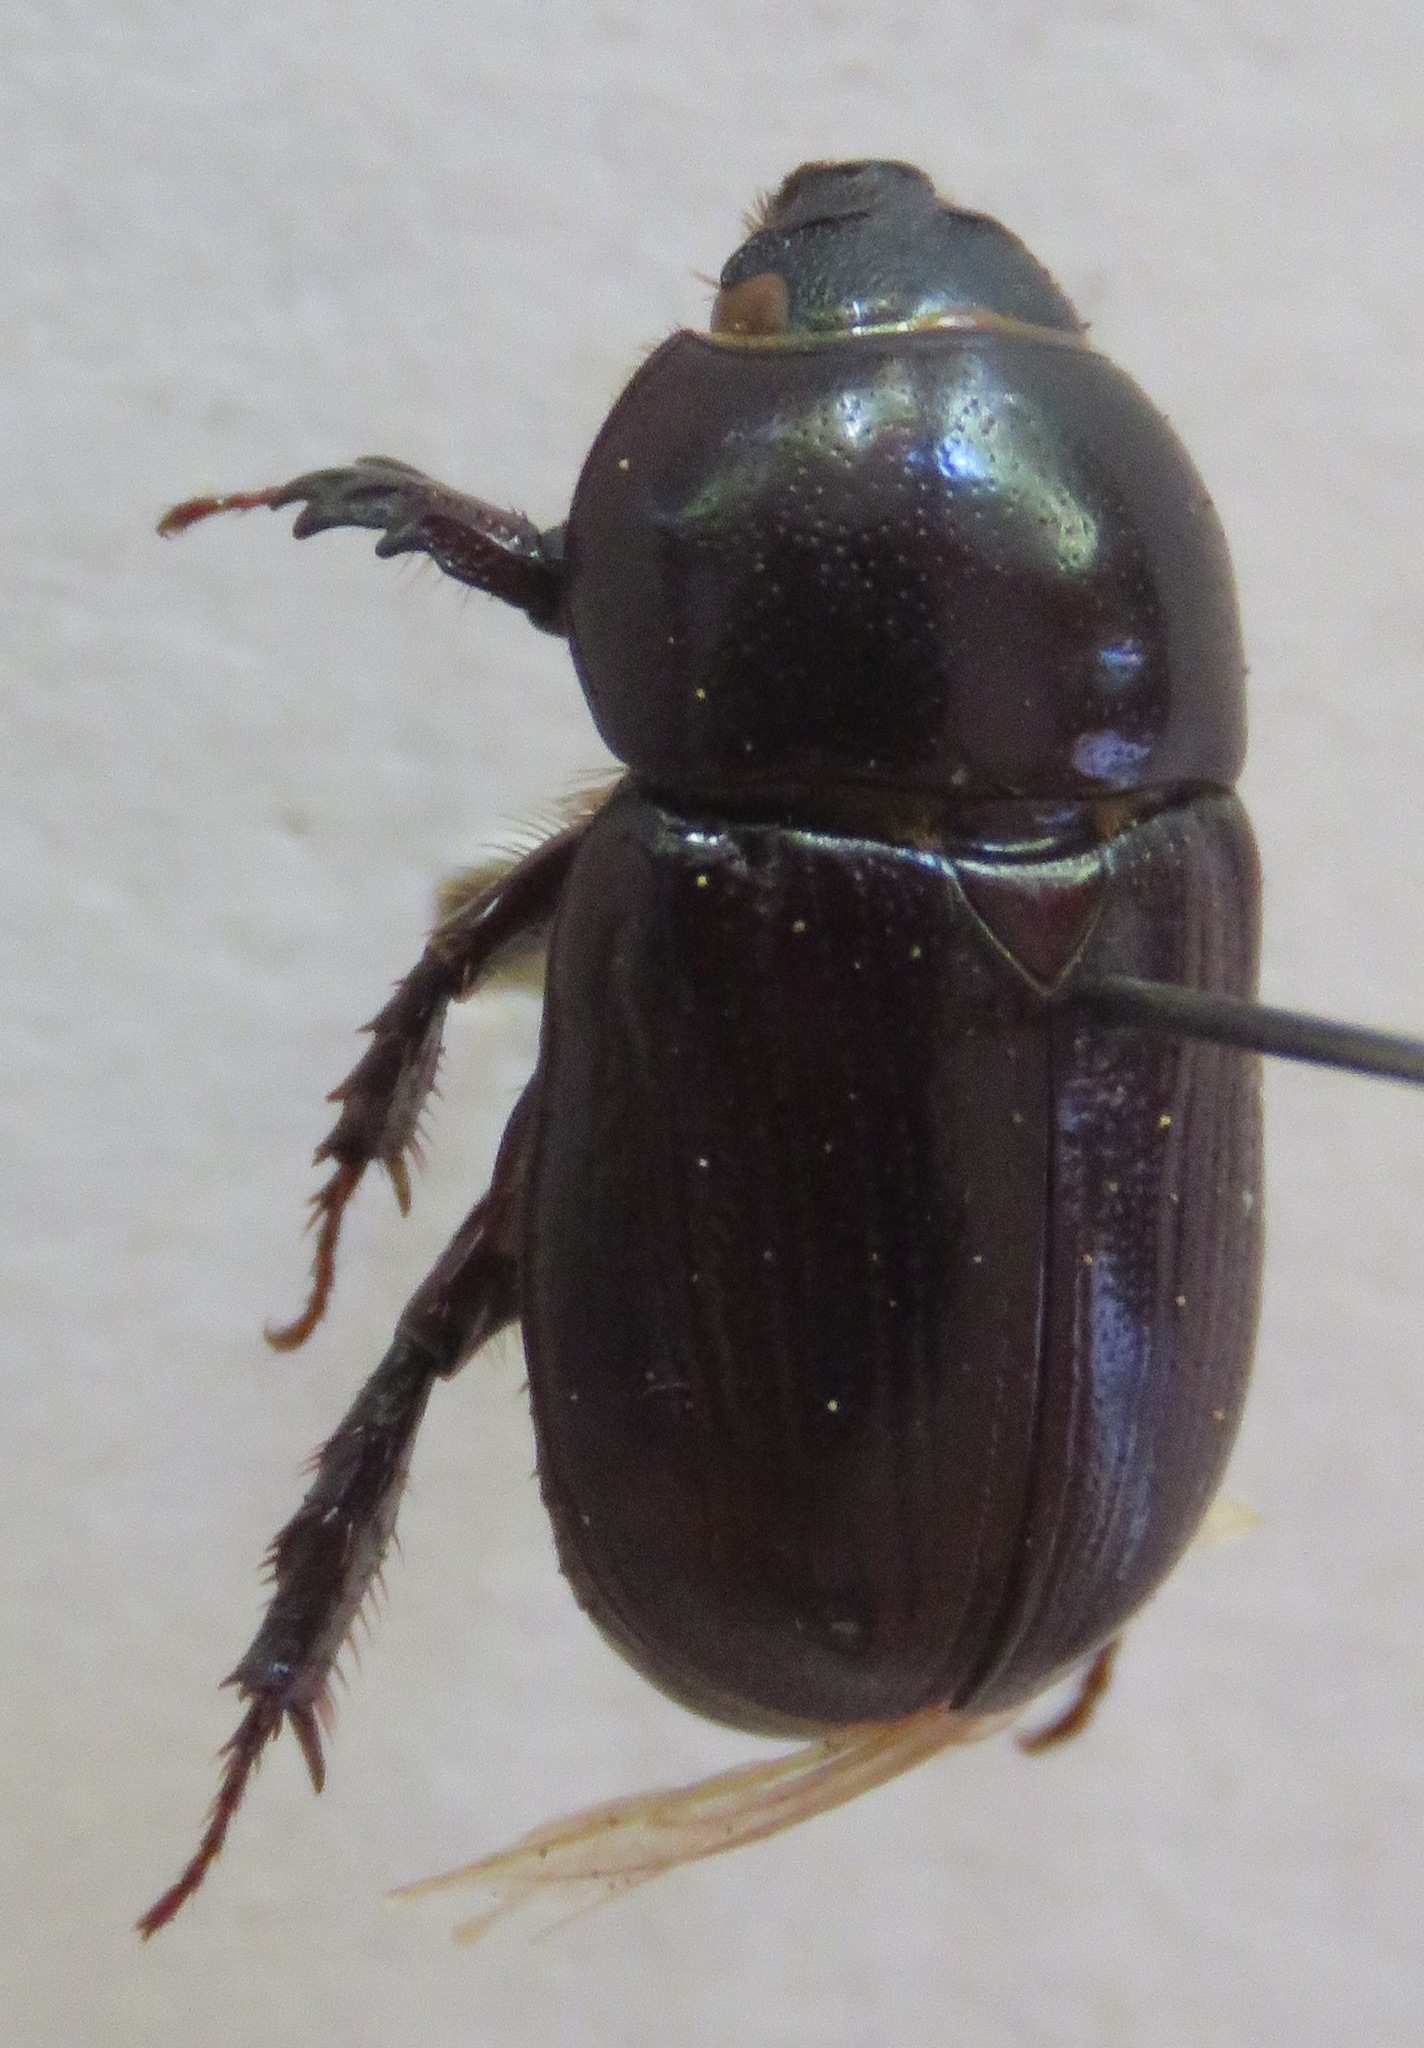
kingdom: Animalia
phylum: Arthropoda
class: Insecta
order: Coleoptera
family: Scarabaeidae
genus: Euetheola
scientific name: Euetheola humilis
